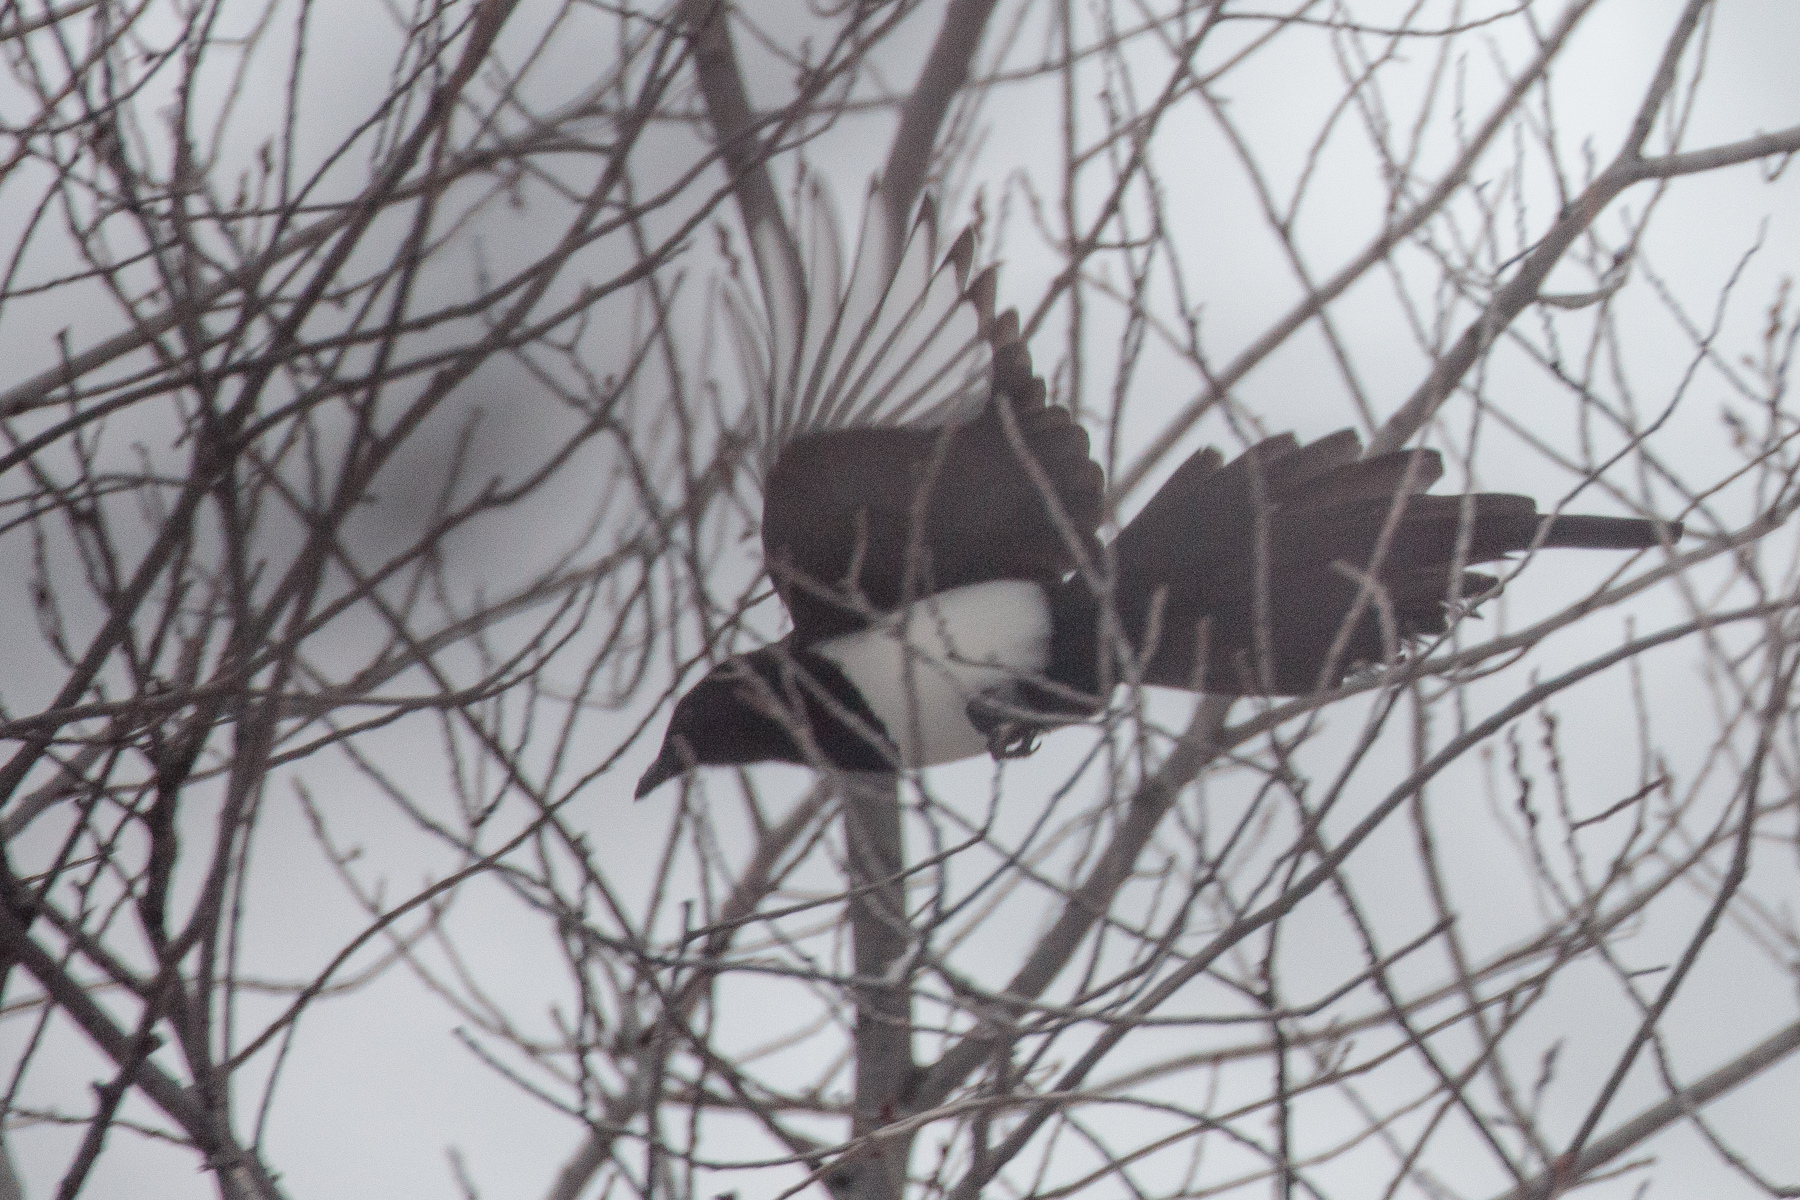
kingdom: Animalia
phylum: Chordata
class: Aves
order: Passeriformes
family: Corvidae
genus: Pica
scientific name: Pica hudsonia
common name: Black-billed magpie
